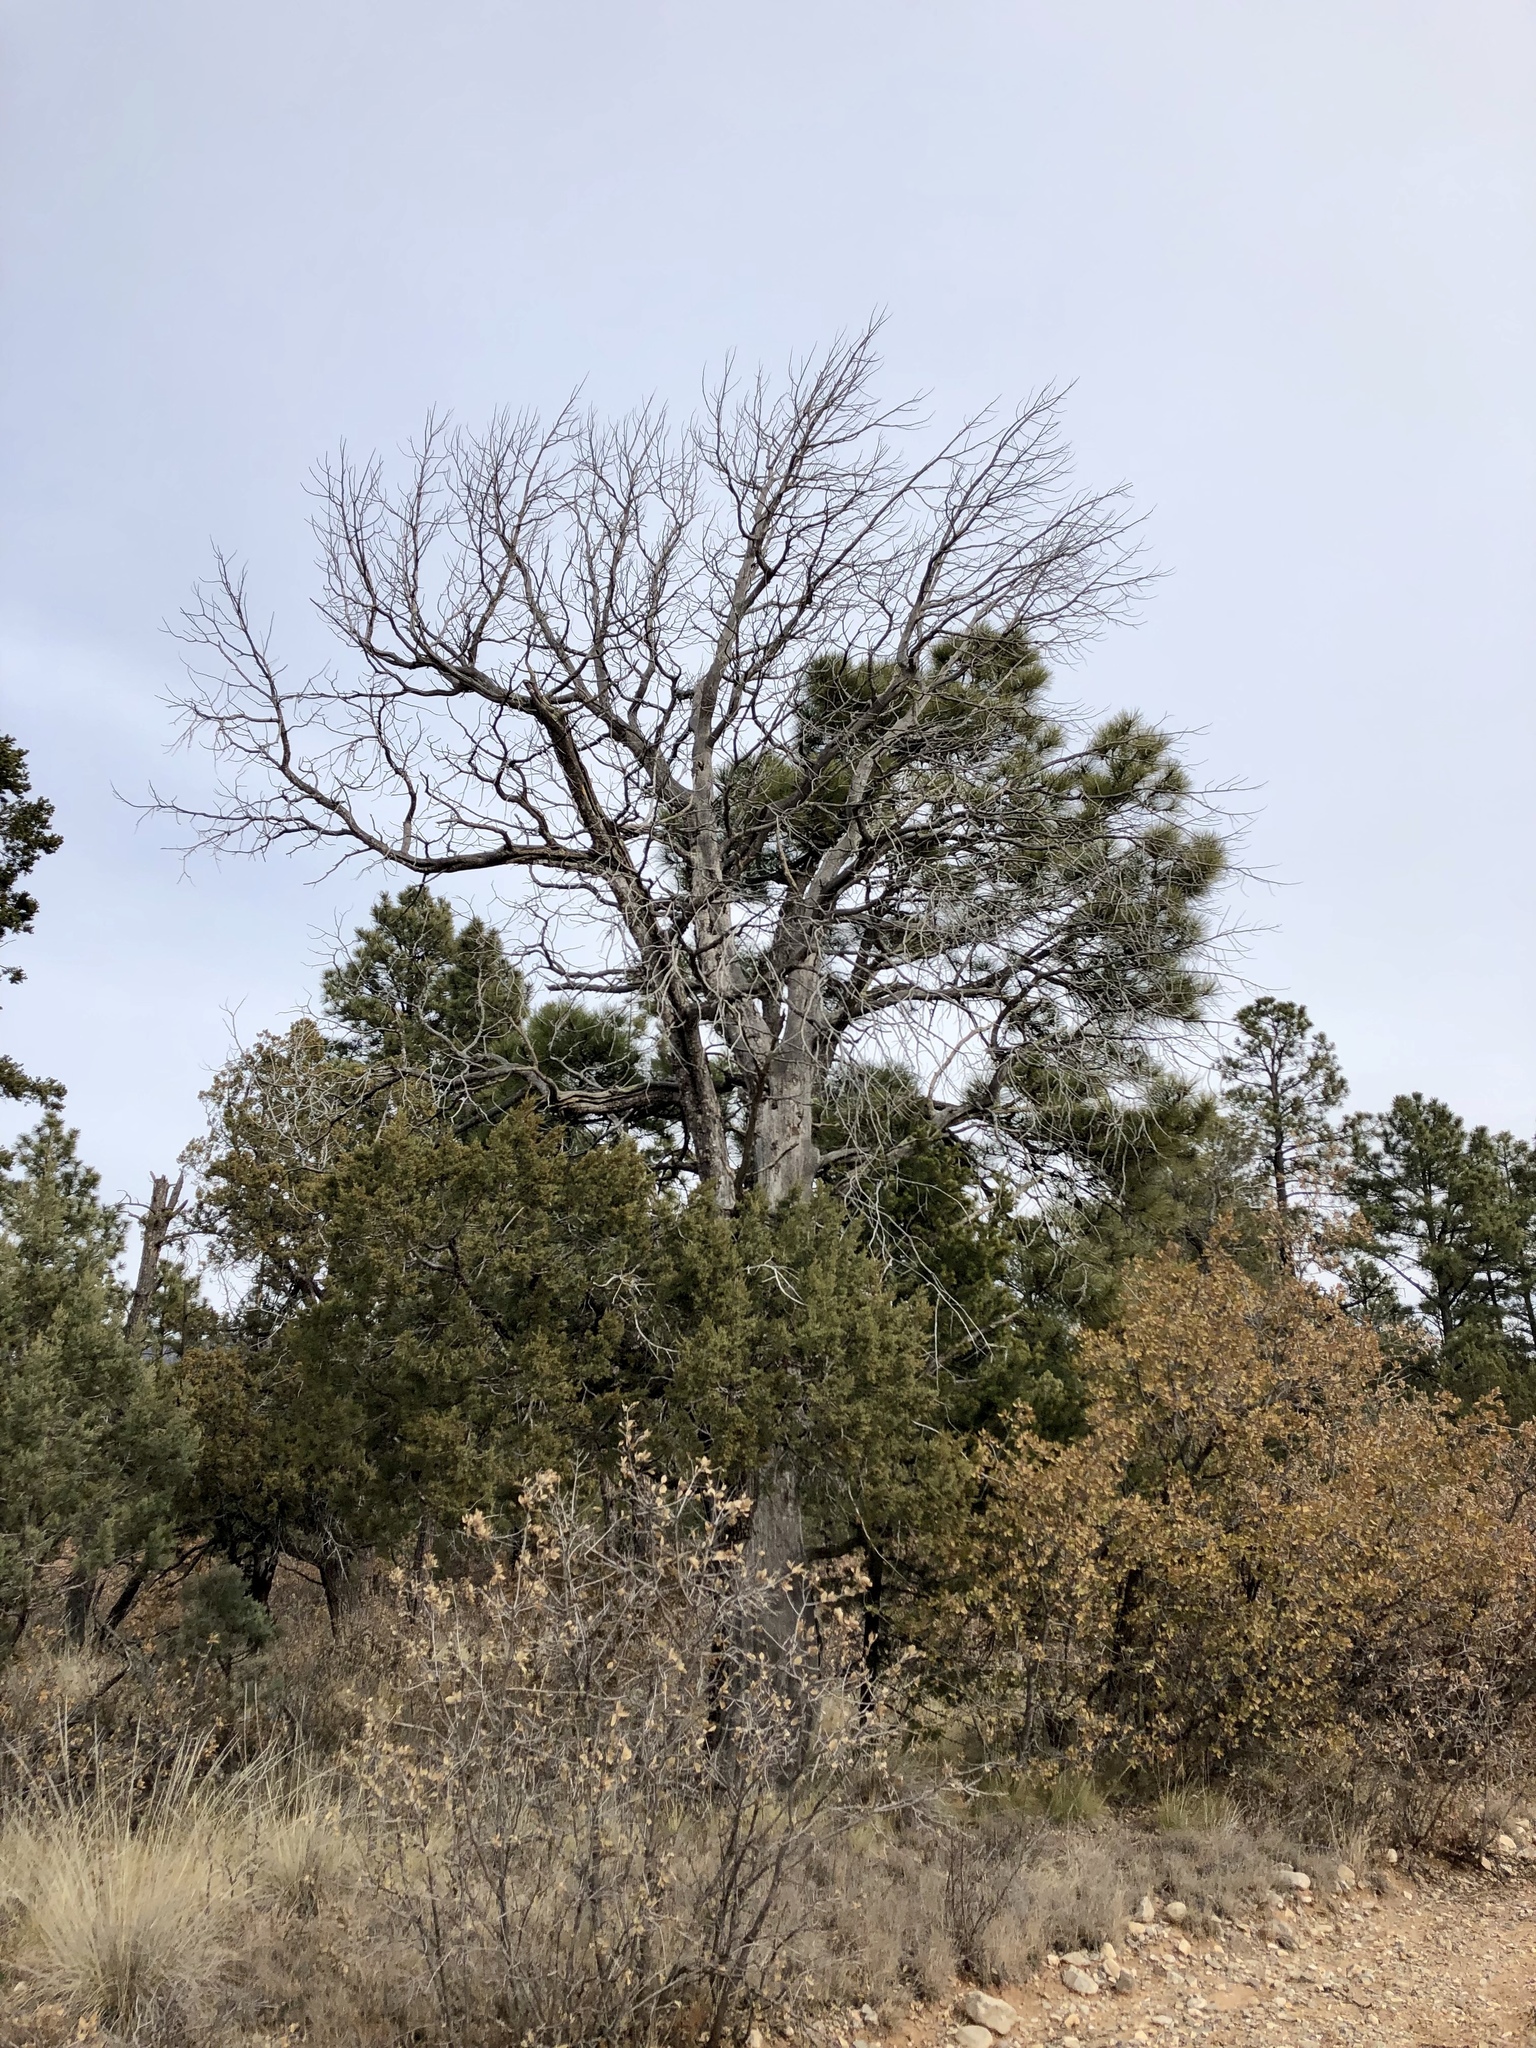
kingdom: Plantae
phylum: Tracheophyta
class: Pinopsida
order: Pinales
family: Cupressaceae
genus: Juniperus
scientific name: Juniperus deppeana
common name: Alligator juniper
